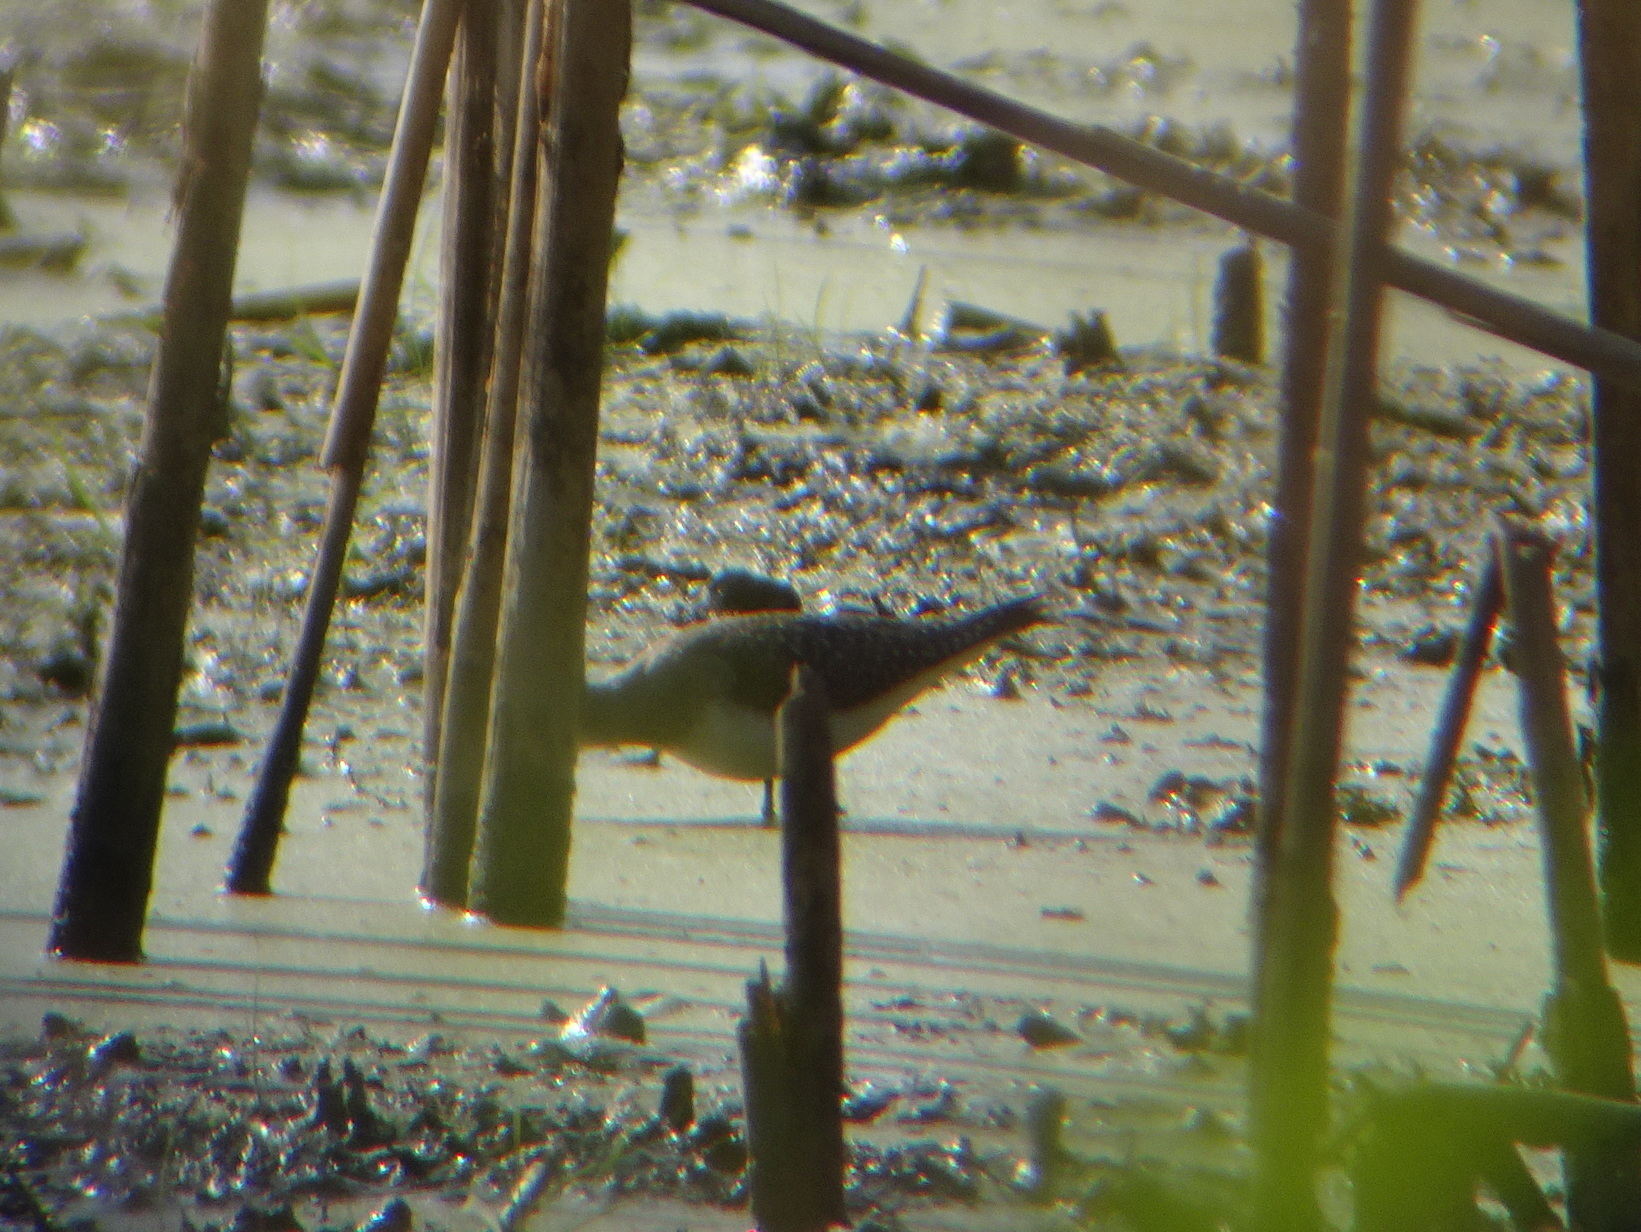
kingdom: Animalia
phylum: Chordata
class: Aves
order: Charadriiformes
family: Scolopacidae
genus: Tringa
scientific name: Tringa solitaria
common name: Solitary sandpiper
